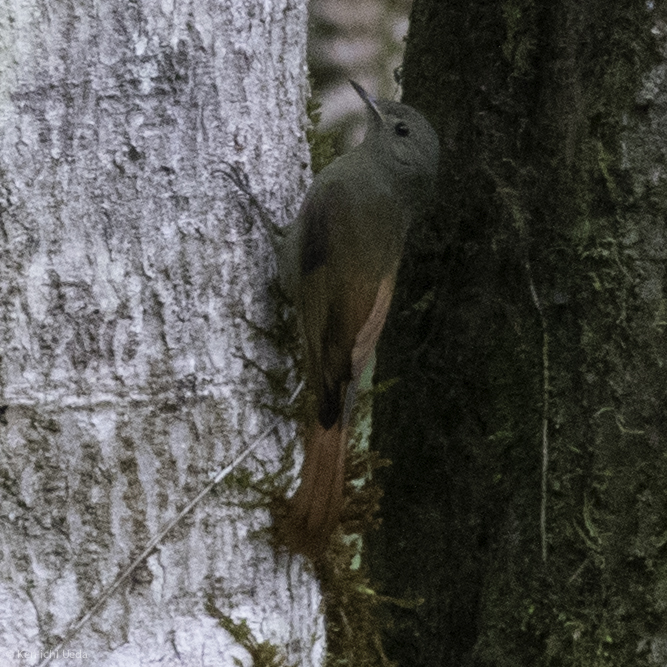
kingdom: Animalia
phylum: Chordata
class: Aves
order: Passeriformes
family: Furnariidae
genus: Sittasomus
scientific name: Sittasomus griseicapillus
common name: Olivaceous woodcreeper
